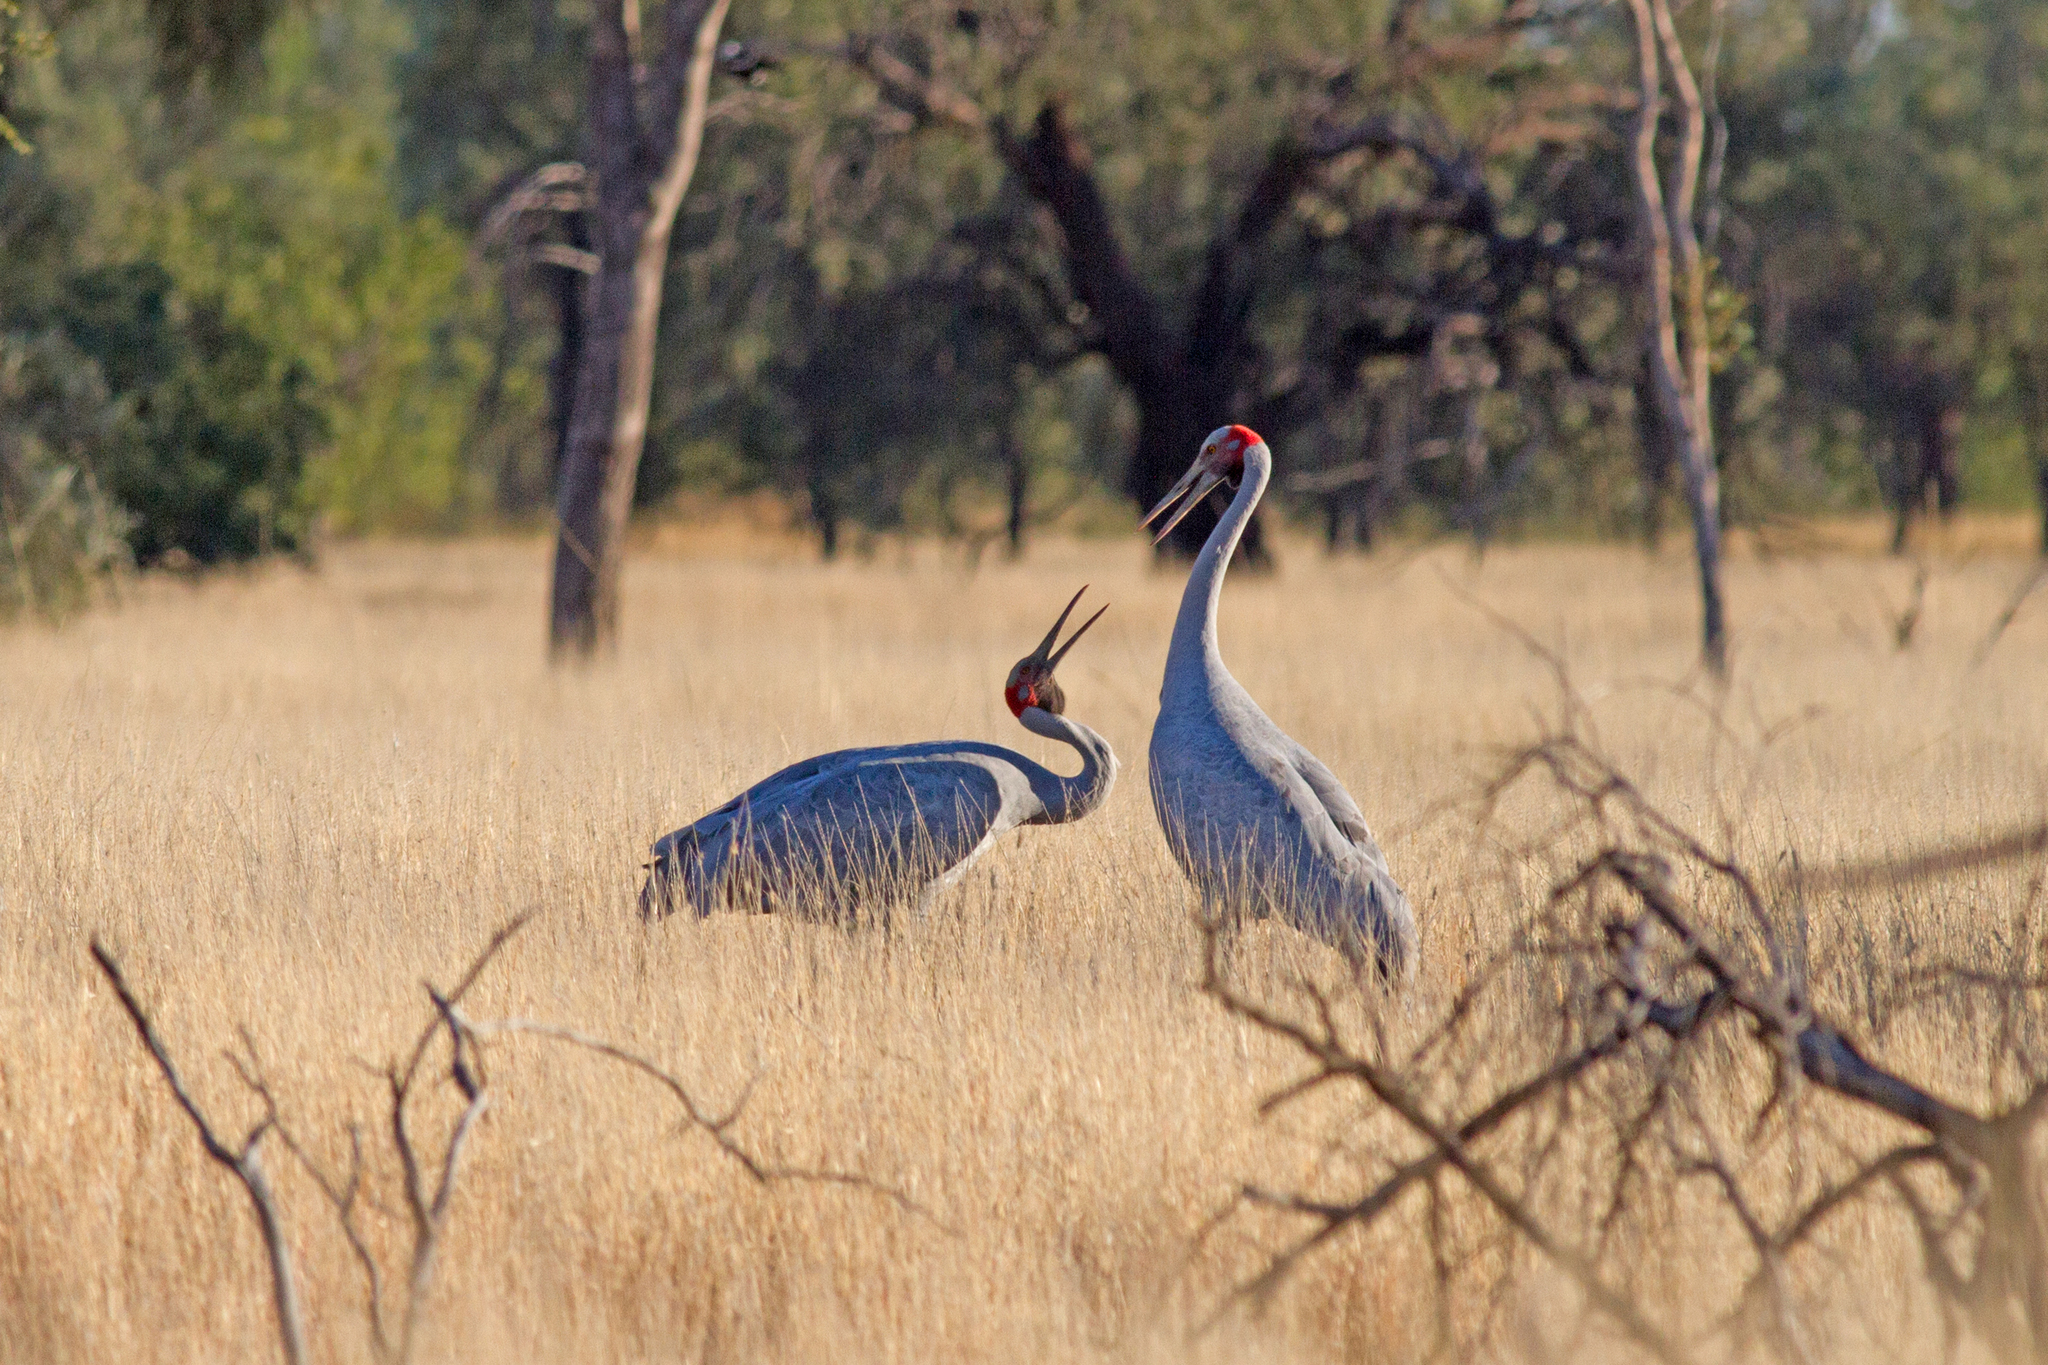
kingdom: Animalia
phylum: Chordata
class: Aves
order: Gruiformes
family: Gruidae
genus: Grus
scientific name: Grus rubicunda
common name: Brolga
